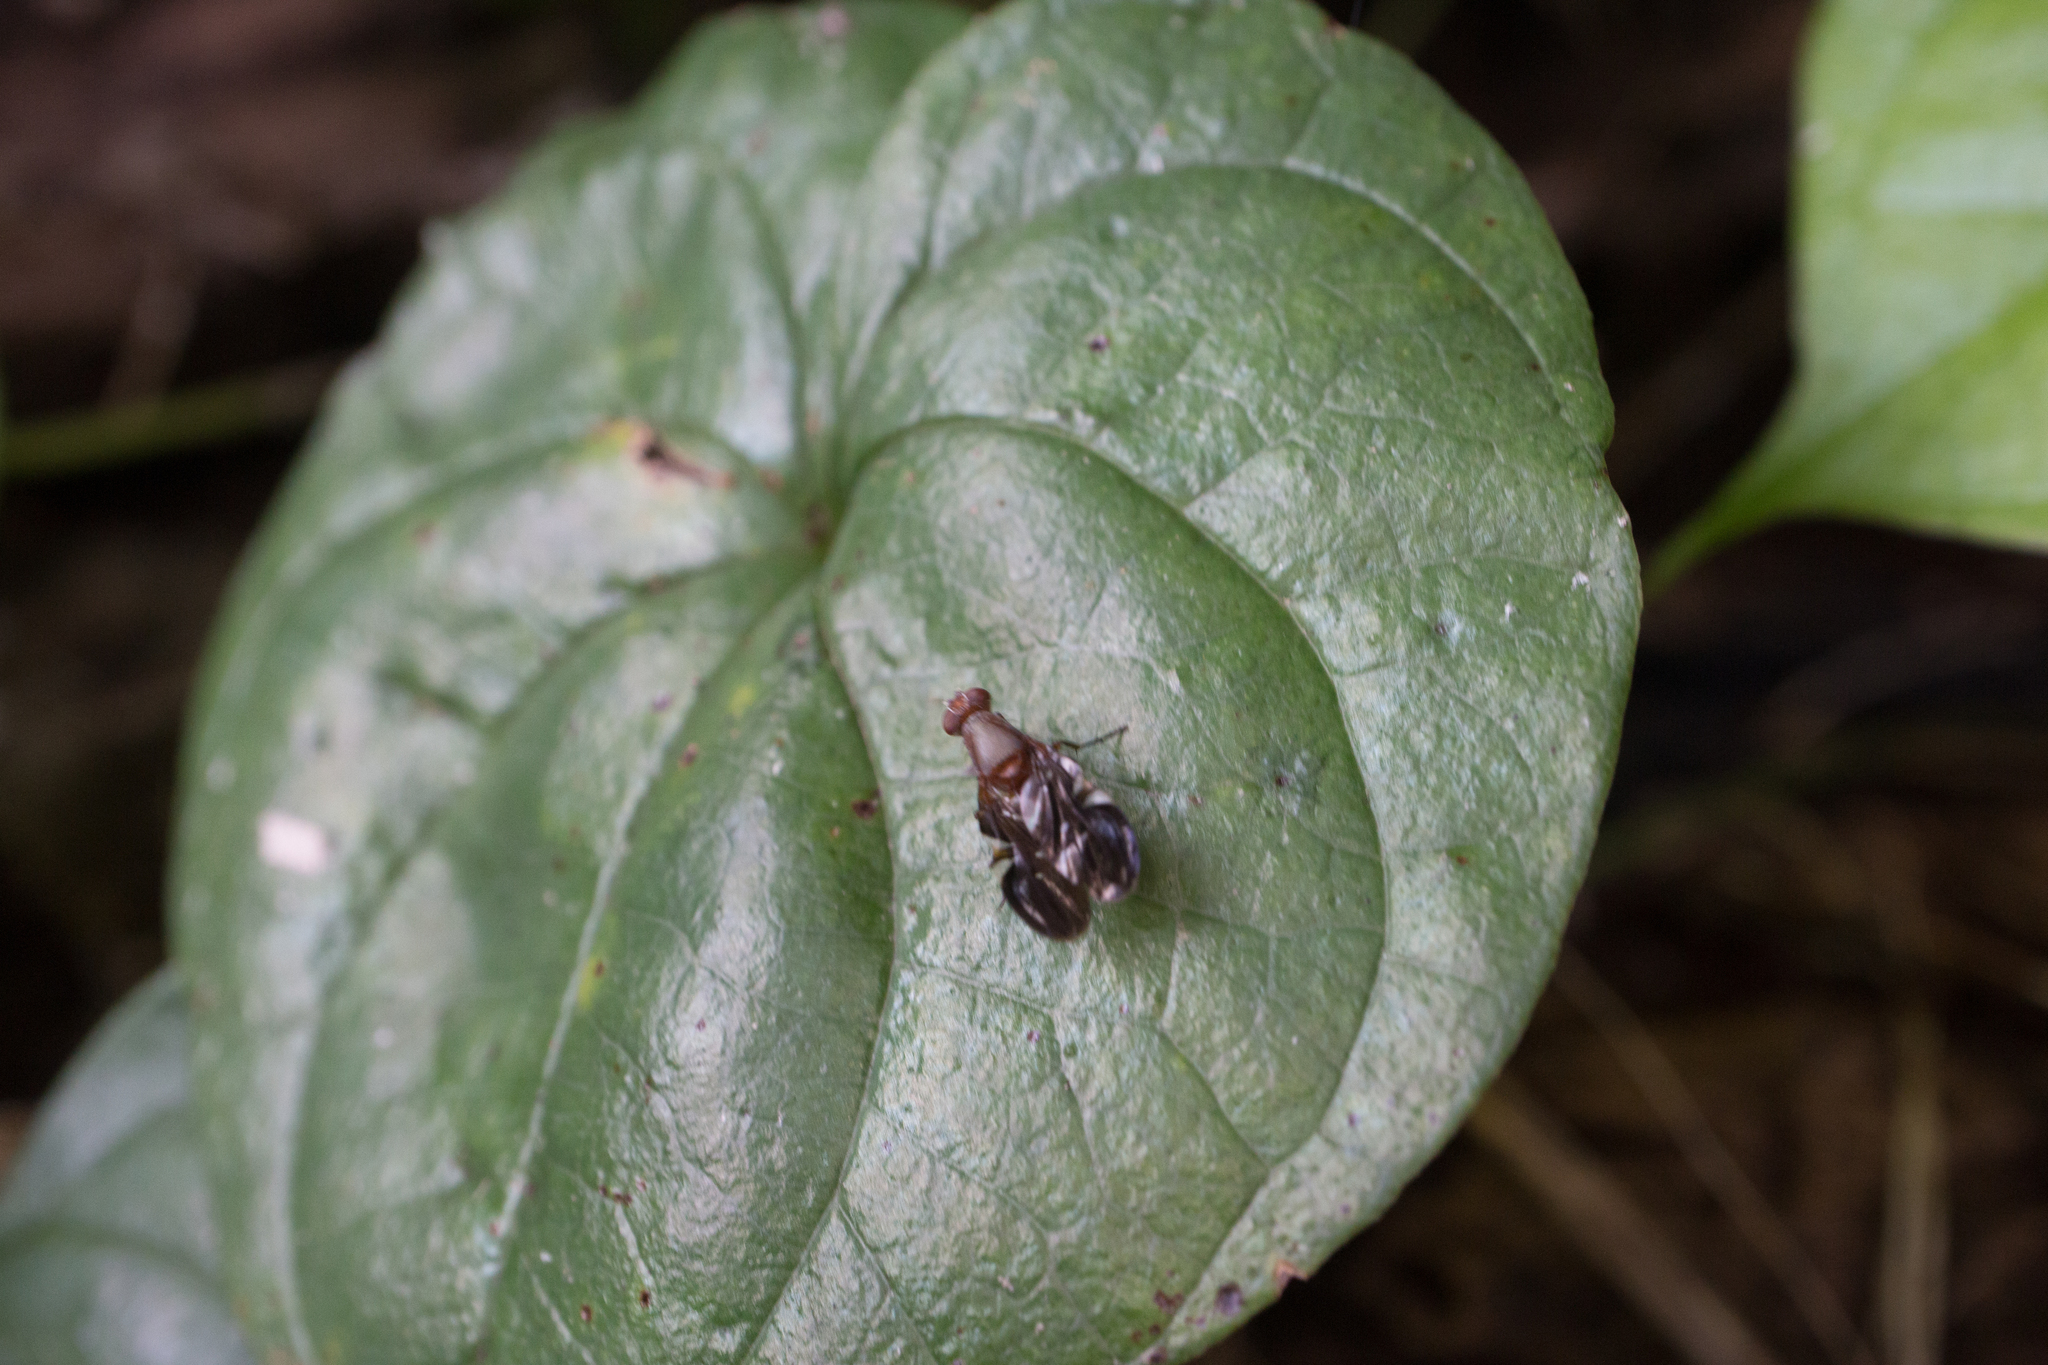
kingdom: Animalia
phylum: Arthropoda
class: Insecta
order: Diptera
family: Ulidiidae
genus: Delphinia
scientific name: Delphinia picta
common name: Common picture-winged fly
